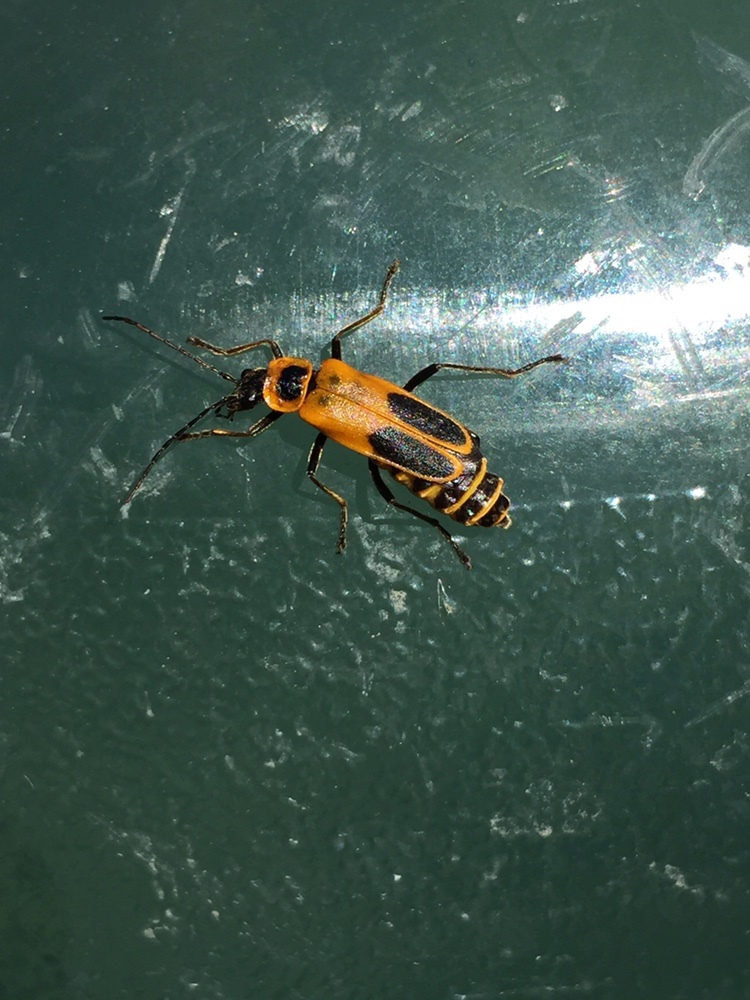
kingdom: Animalia
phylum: Arthropoda
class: Insecta
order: Coleoptera
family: Cantharidae
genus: Chauliognathus
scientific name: Chauliognathus pensylvanicus
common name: Goldenrod soldier beetle
